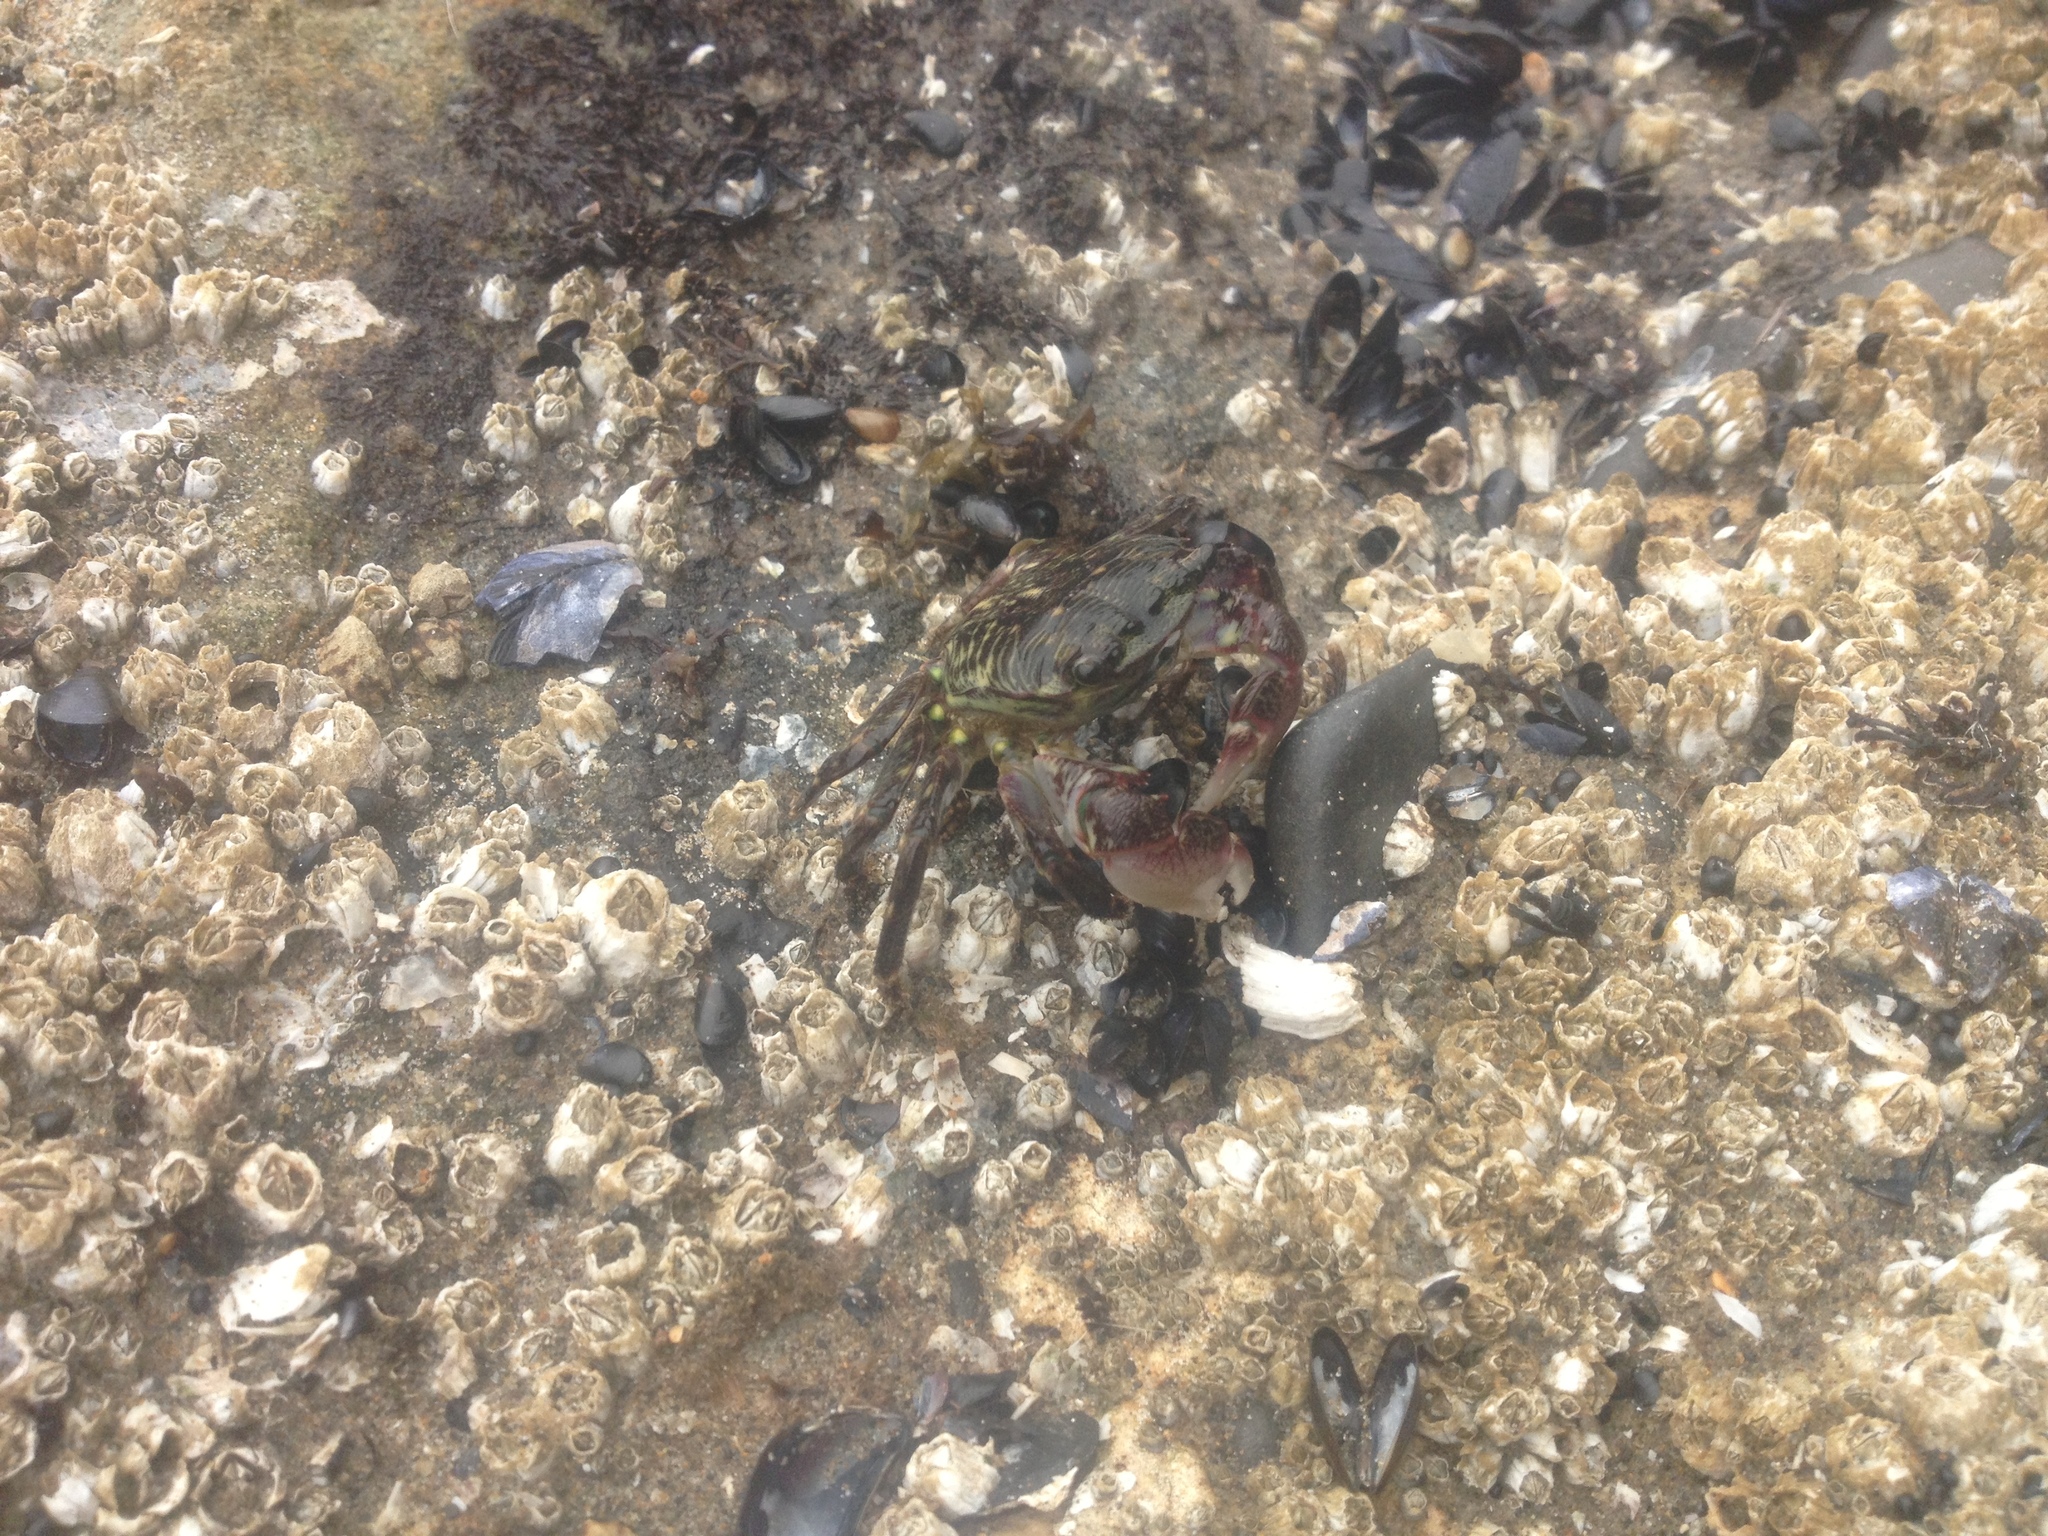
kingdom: Animalia
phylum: Arthropoda
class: Malacostraca
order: Decapoda
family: Grapsidae
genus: Pachygrapsus
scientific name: Pachygrapsus crassipes
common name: Striped shore crab
